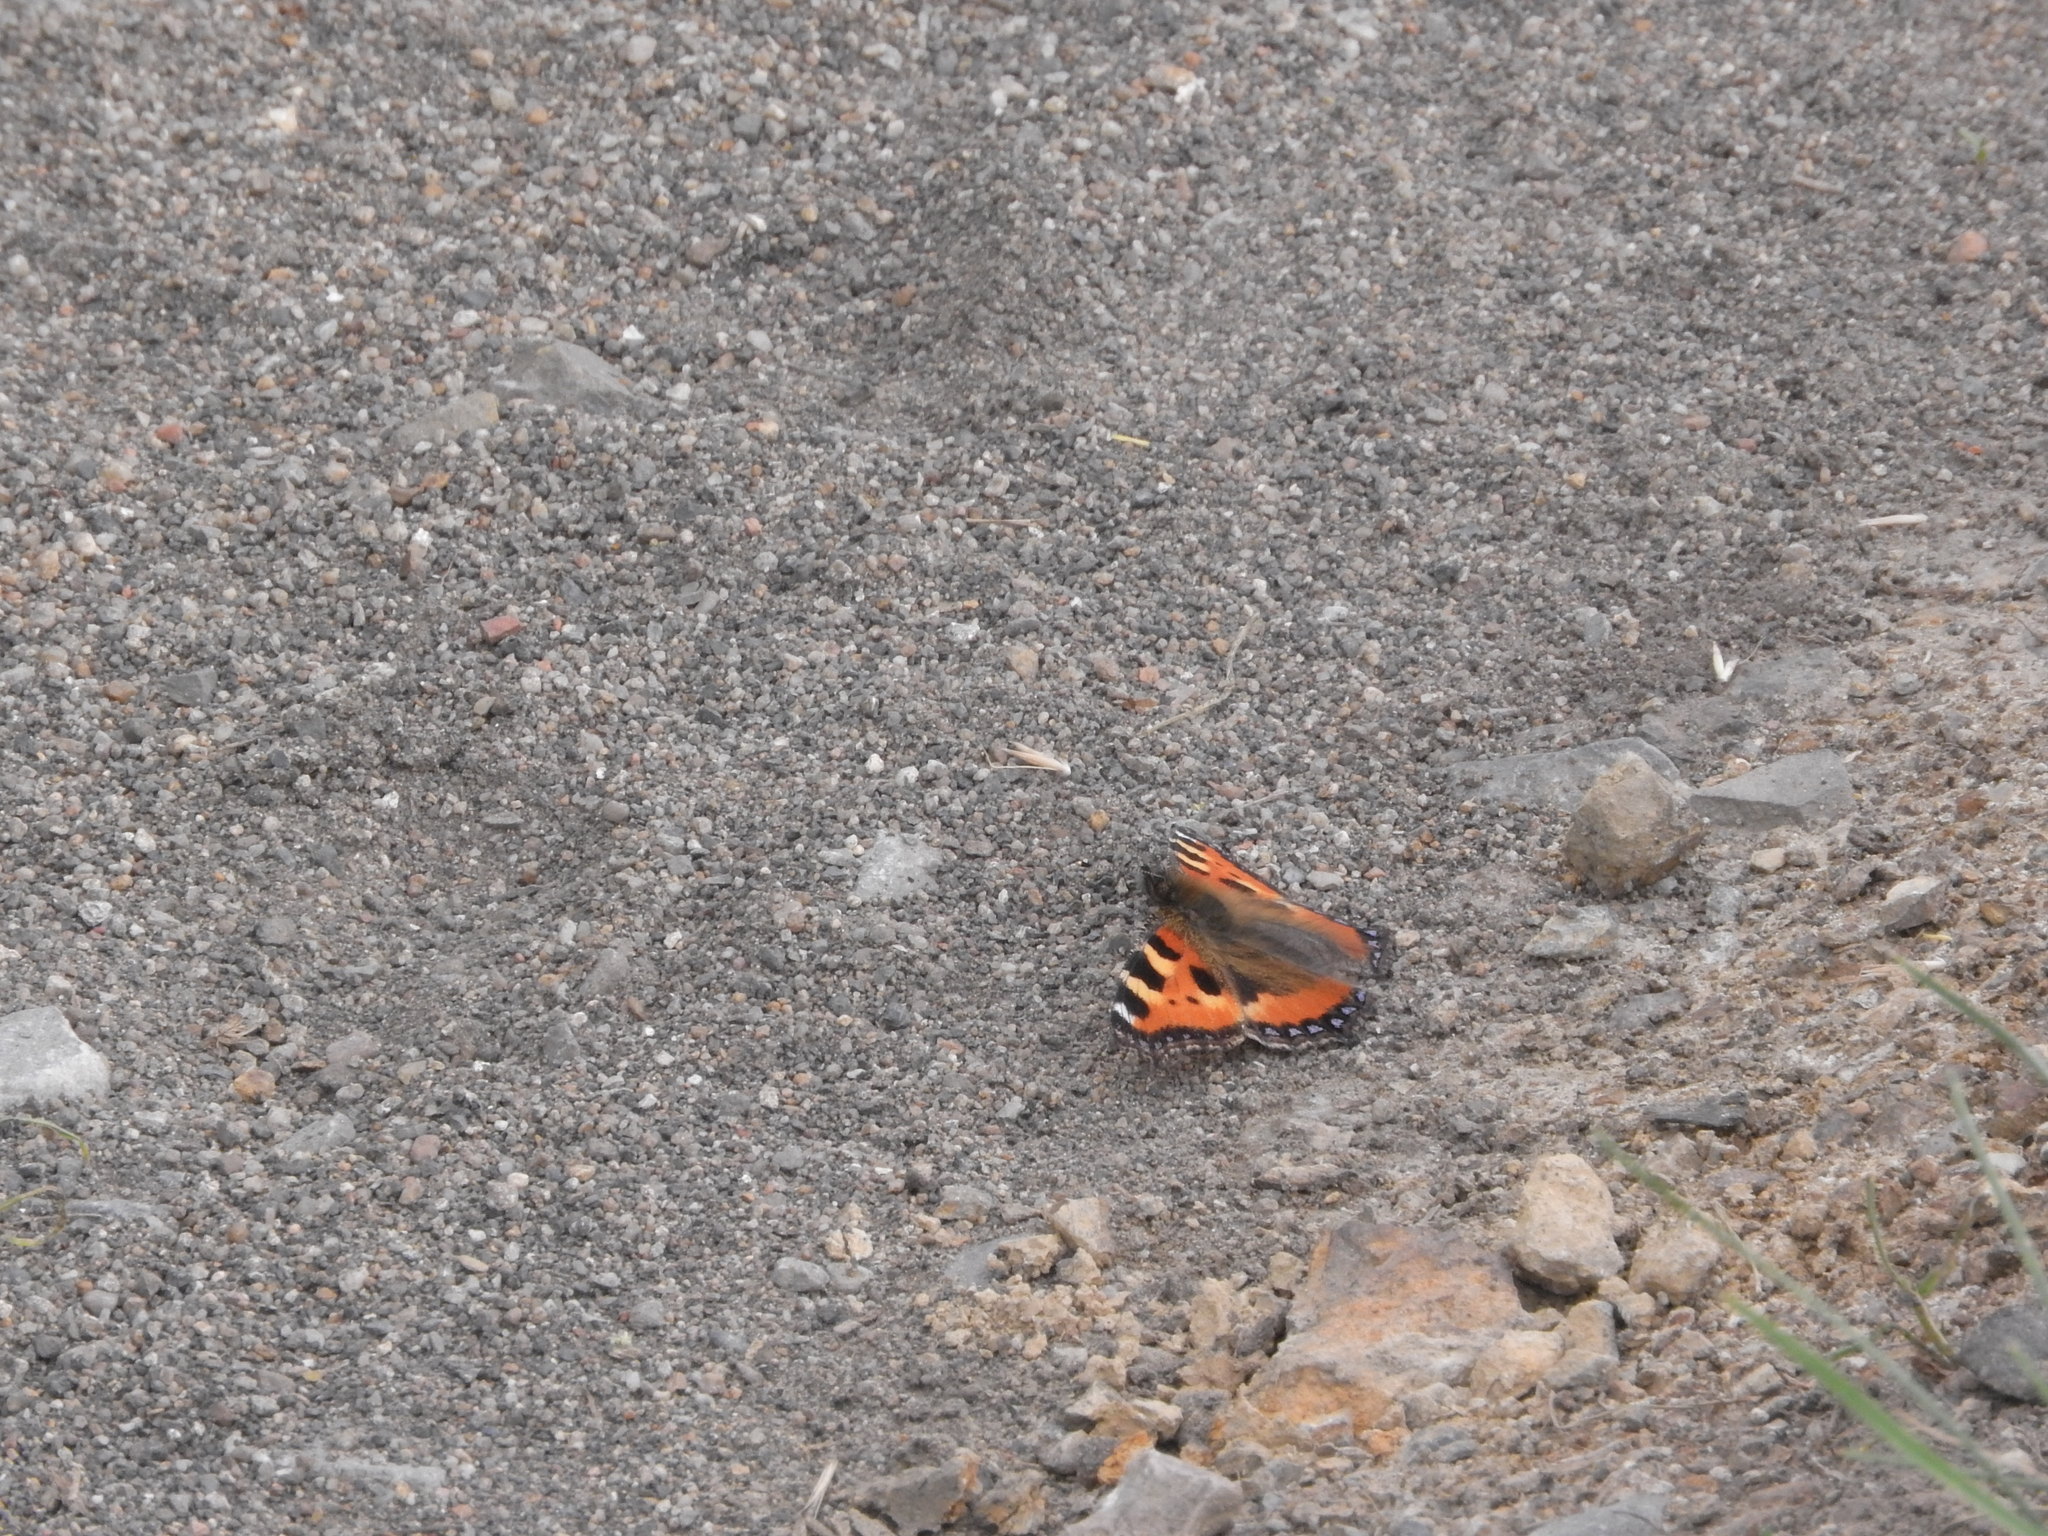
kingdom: Animalia
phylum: Arthropoda
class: Insecta
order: Lepidoptera
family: Nymphalidae
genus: Aglais
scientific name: Aglais urticae
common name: Small tortoiseshell
